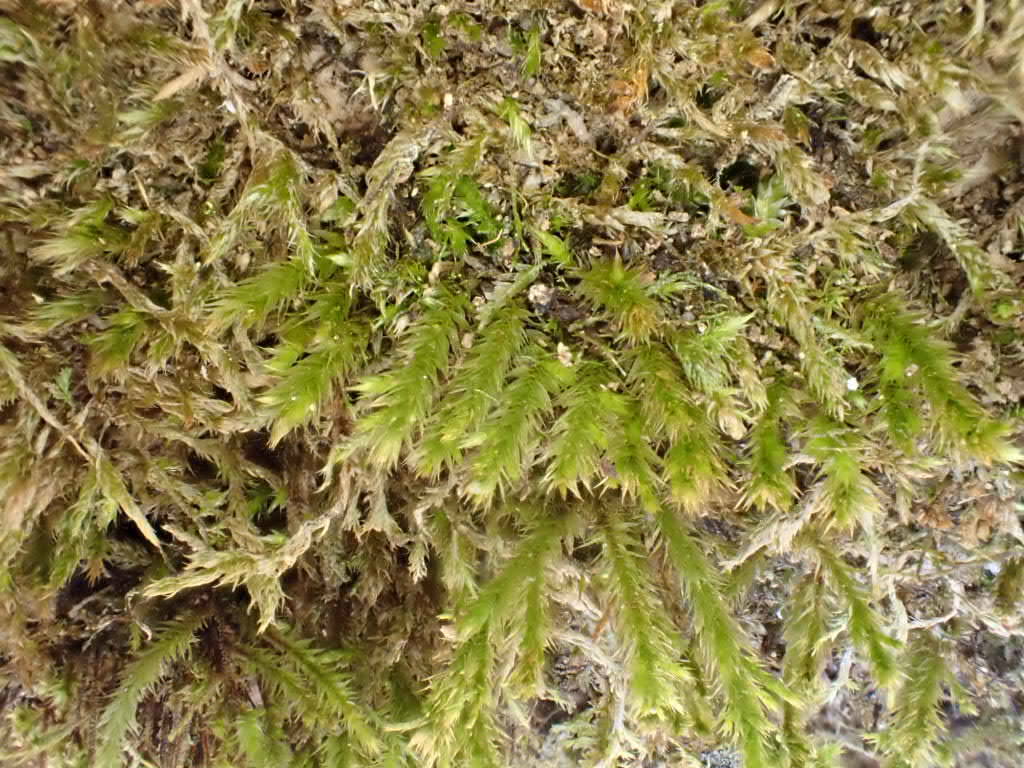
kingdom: Plantae
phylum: Bryophyta
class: Bryopsida
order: Hypnales
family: Leucodontaceae
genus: Leucodon
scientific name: Leucodon sciuroides
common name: Squirrel-tail moss
